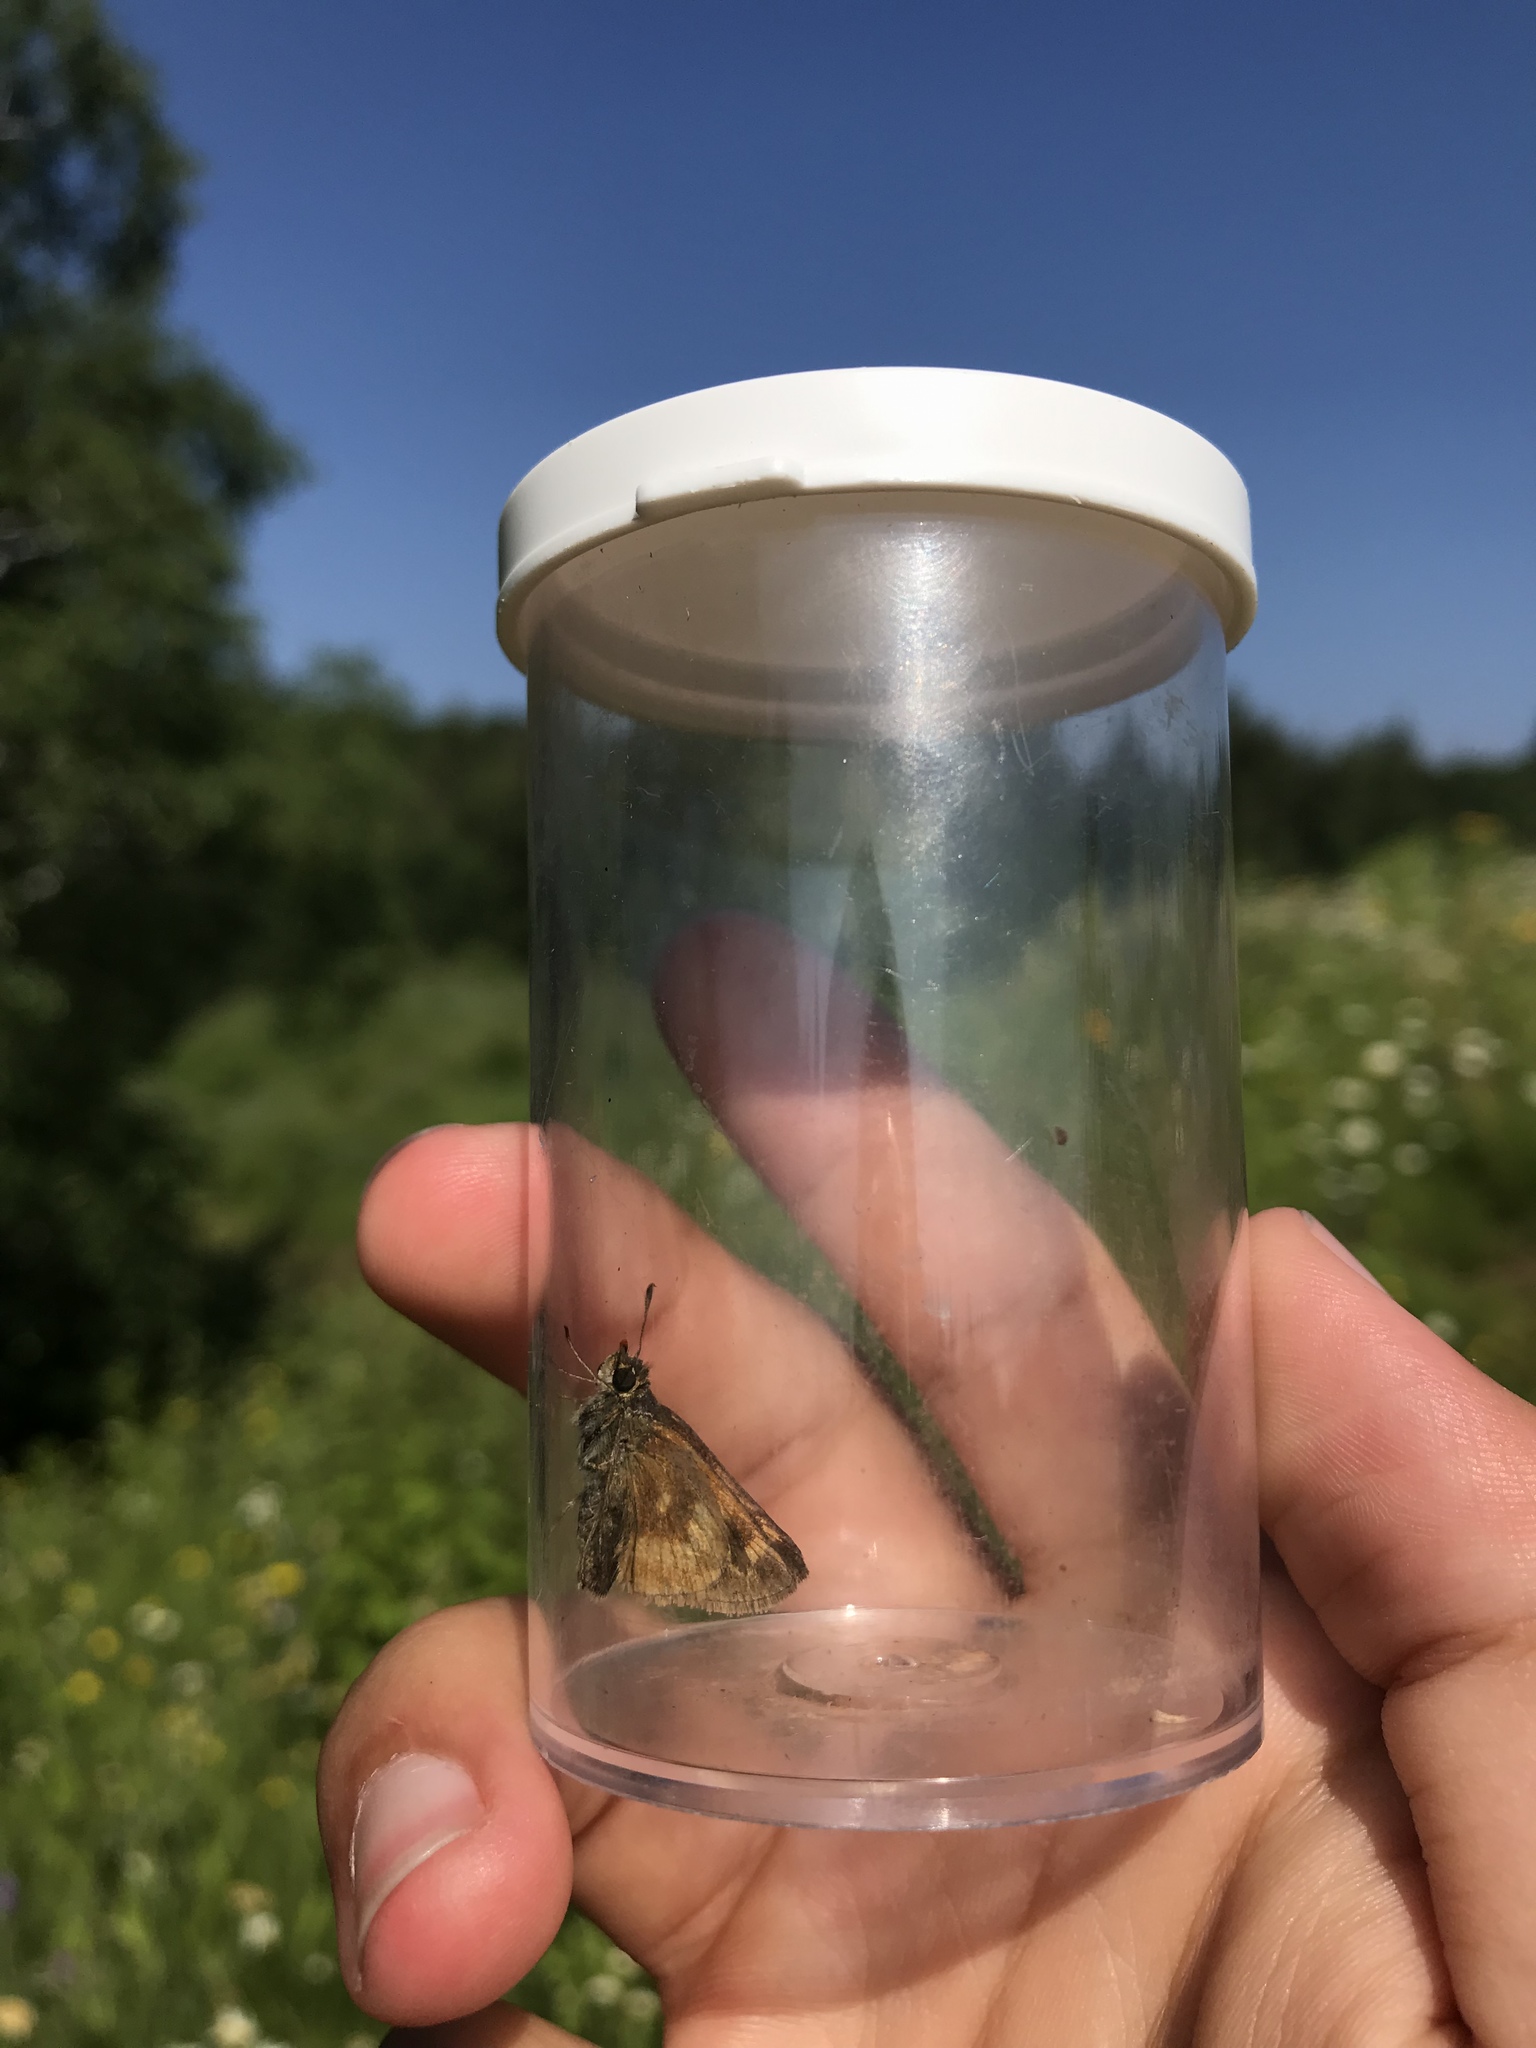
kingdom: Animalia
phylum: Arthropoda
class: Insecta
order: Lepidoptera
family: Hesperiidae
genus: Polites
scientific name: Polites mystic
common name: Long dash
